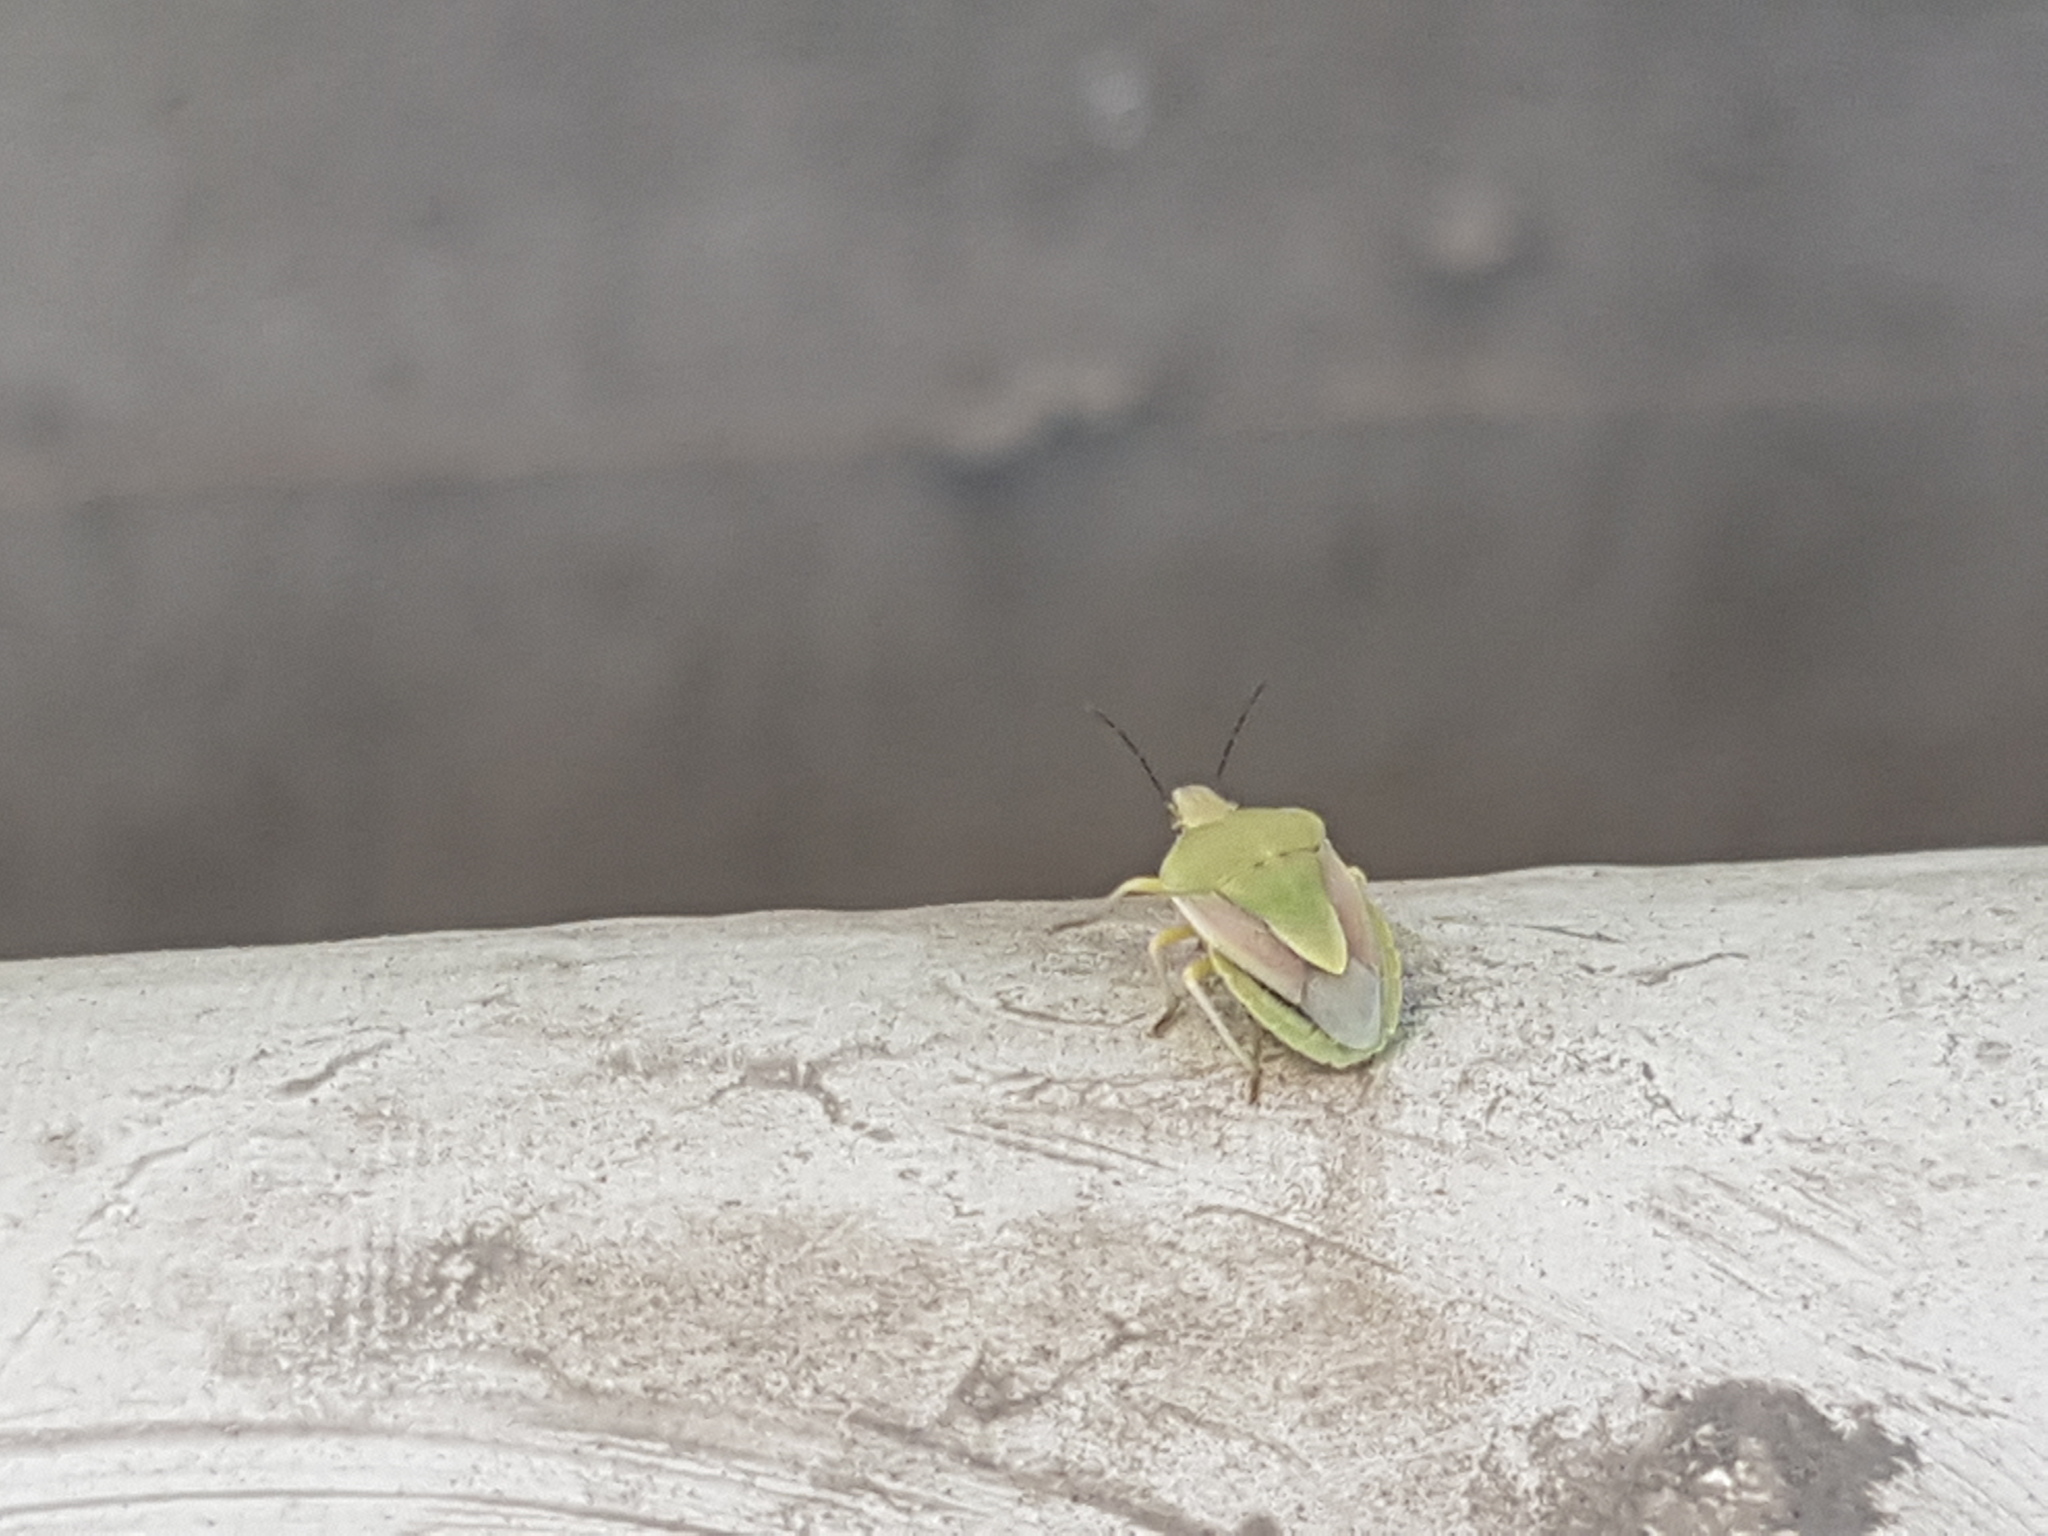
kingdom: Animalia
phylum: Arthropoda
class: Insecta
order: Hemiptera
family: Pentatomidae
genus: Antheminia
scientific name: Antheminia pusio
